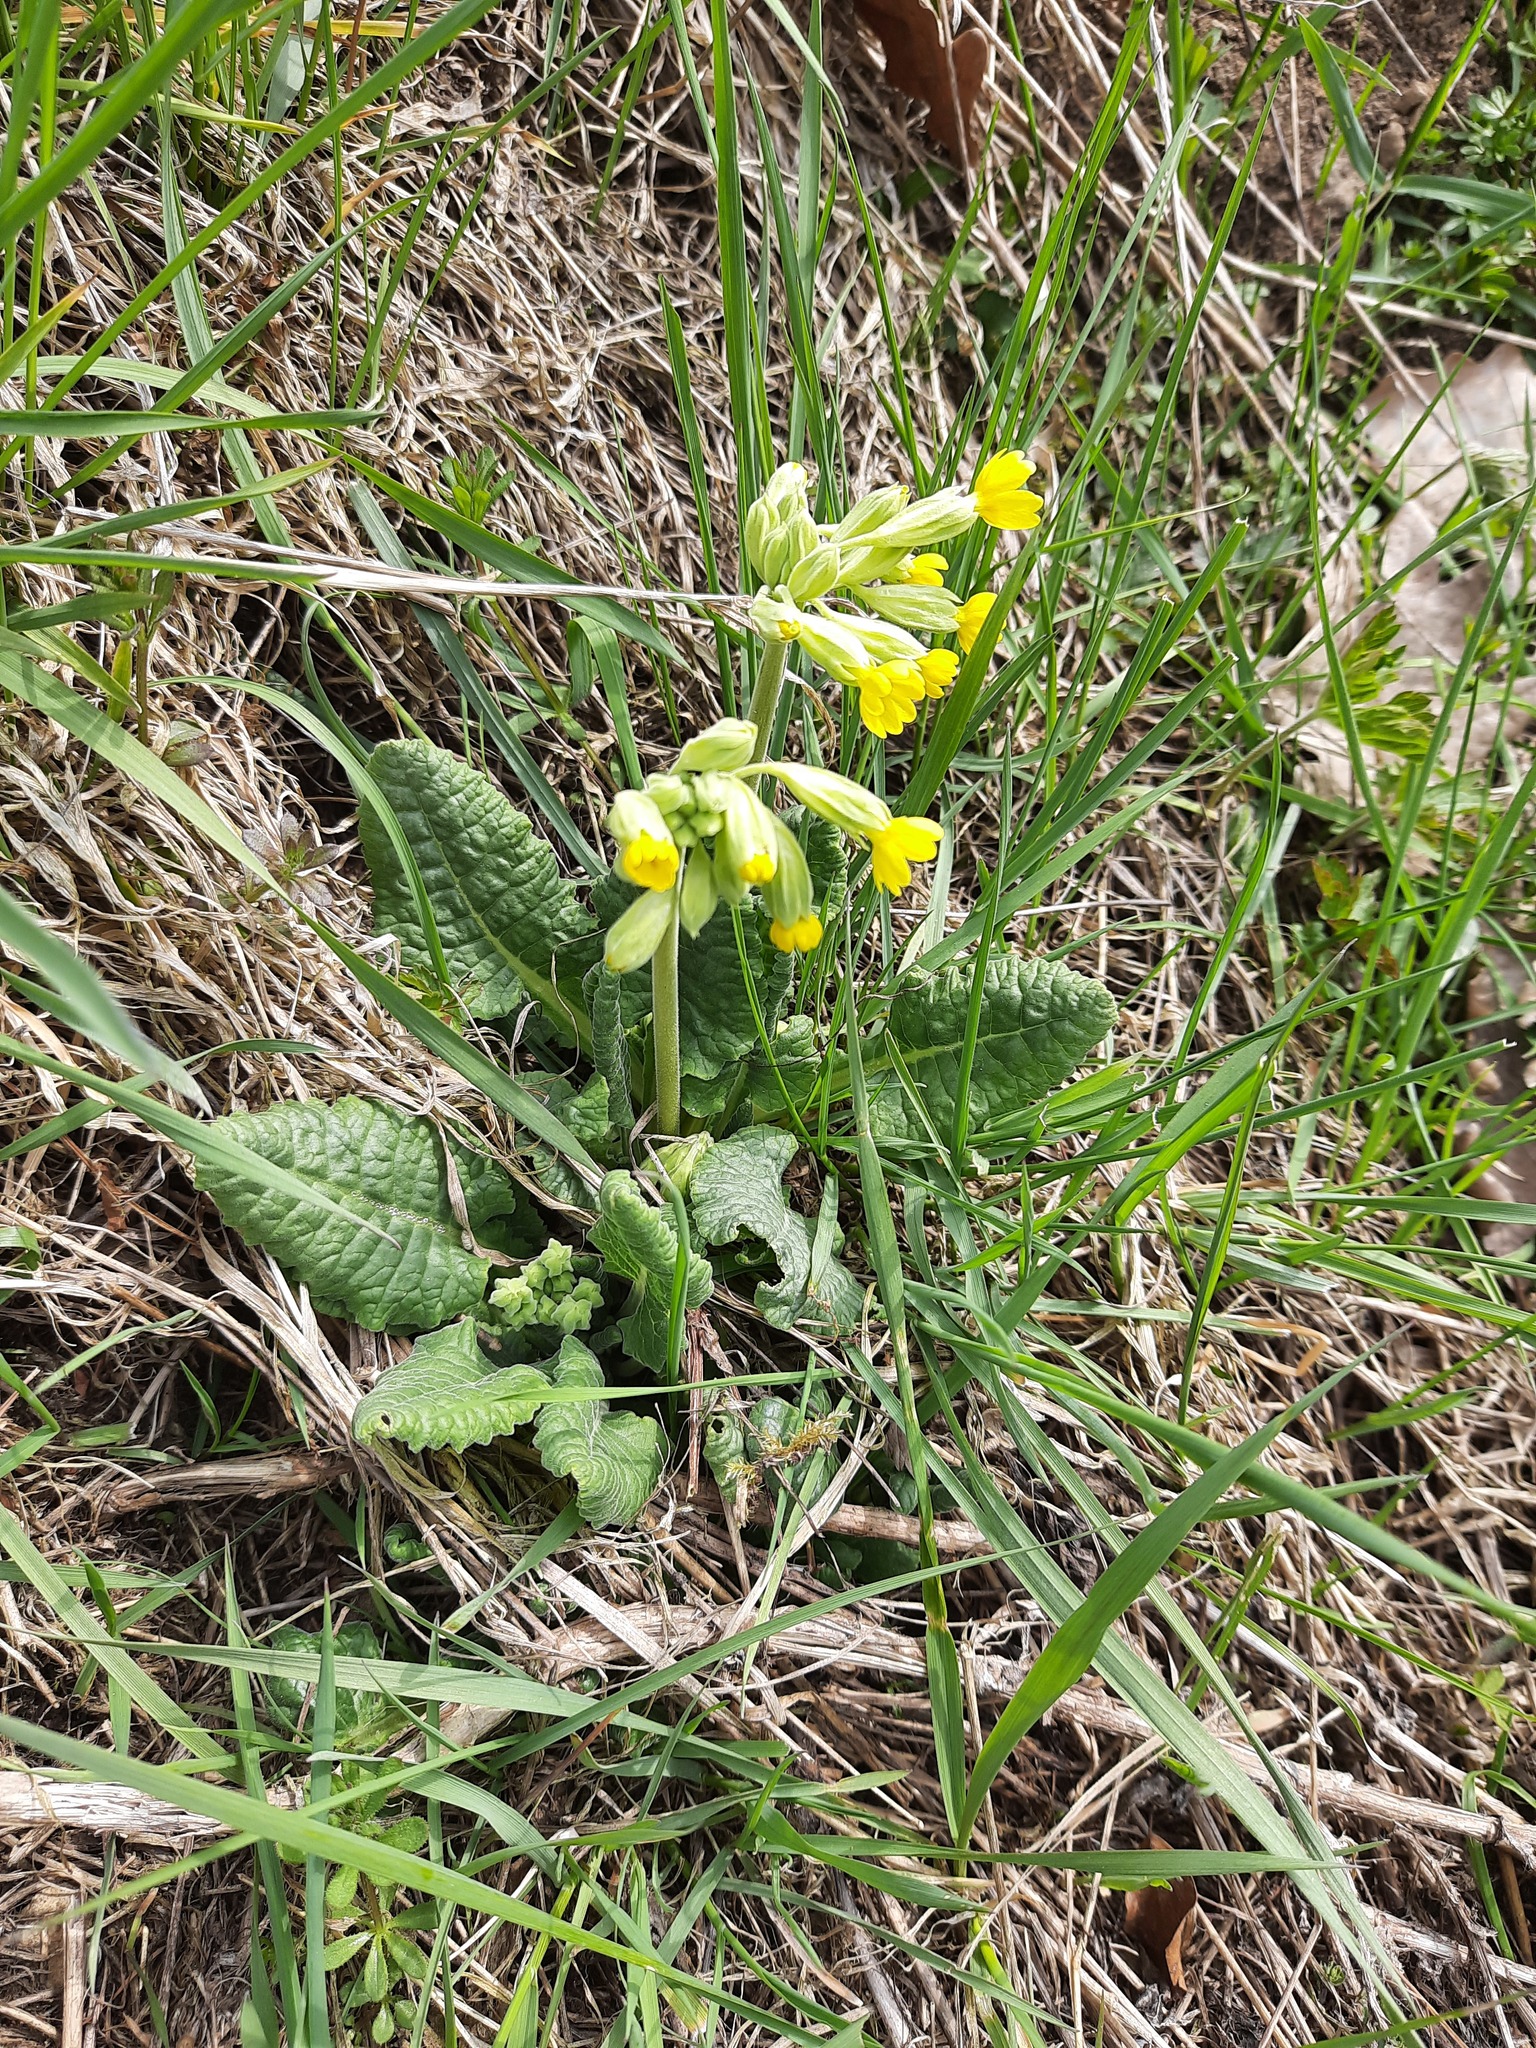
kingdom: Plantae
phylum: Tracheophyta
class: Magnoliopsida
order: Ericales
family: Primulaceae
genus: Primula
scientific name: Primula veris
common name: Cowslip
